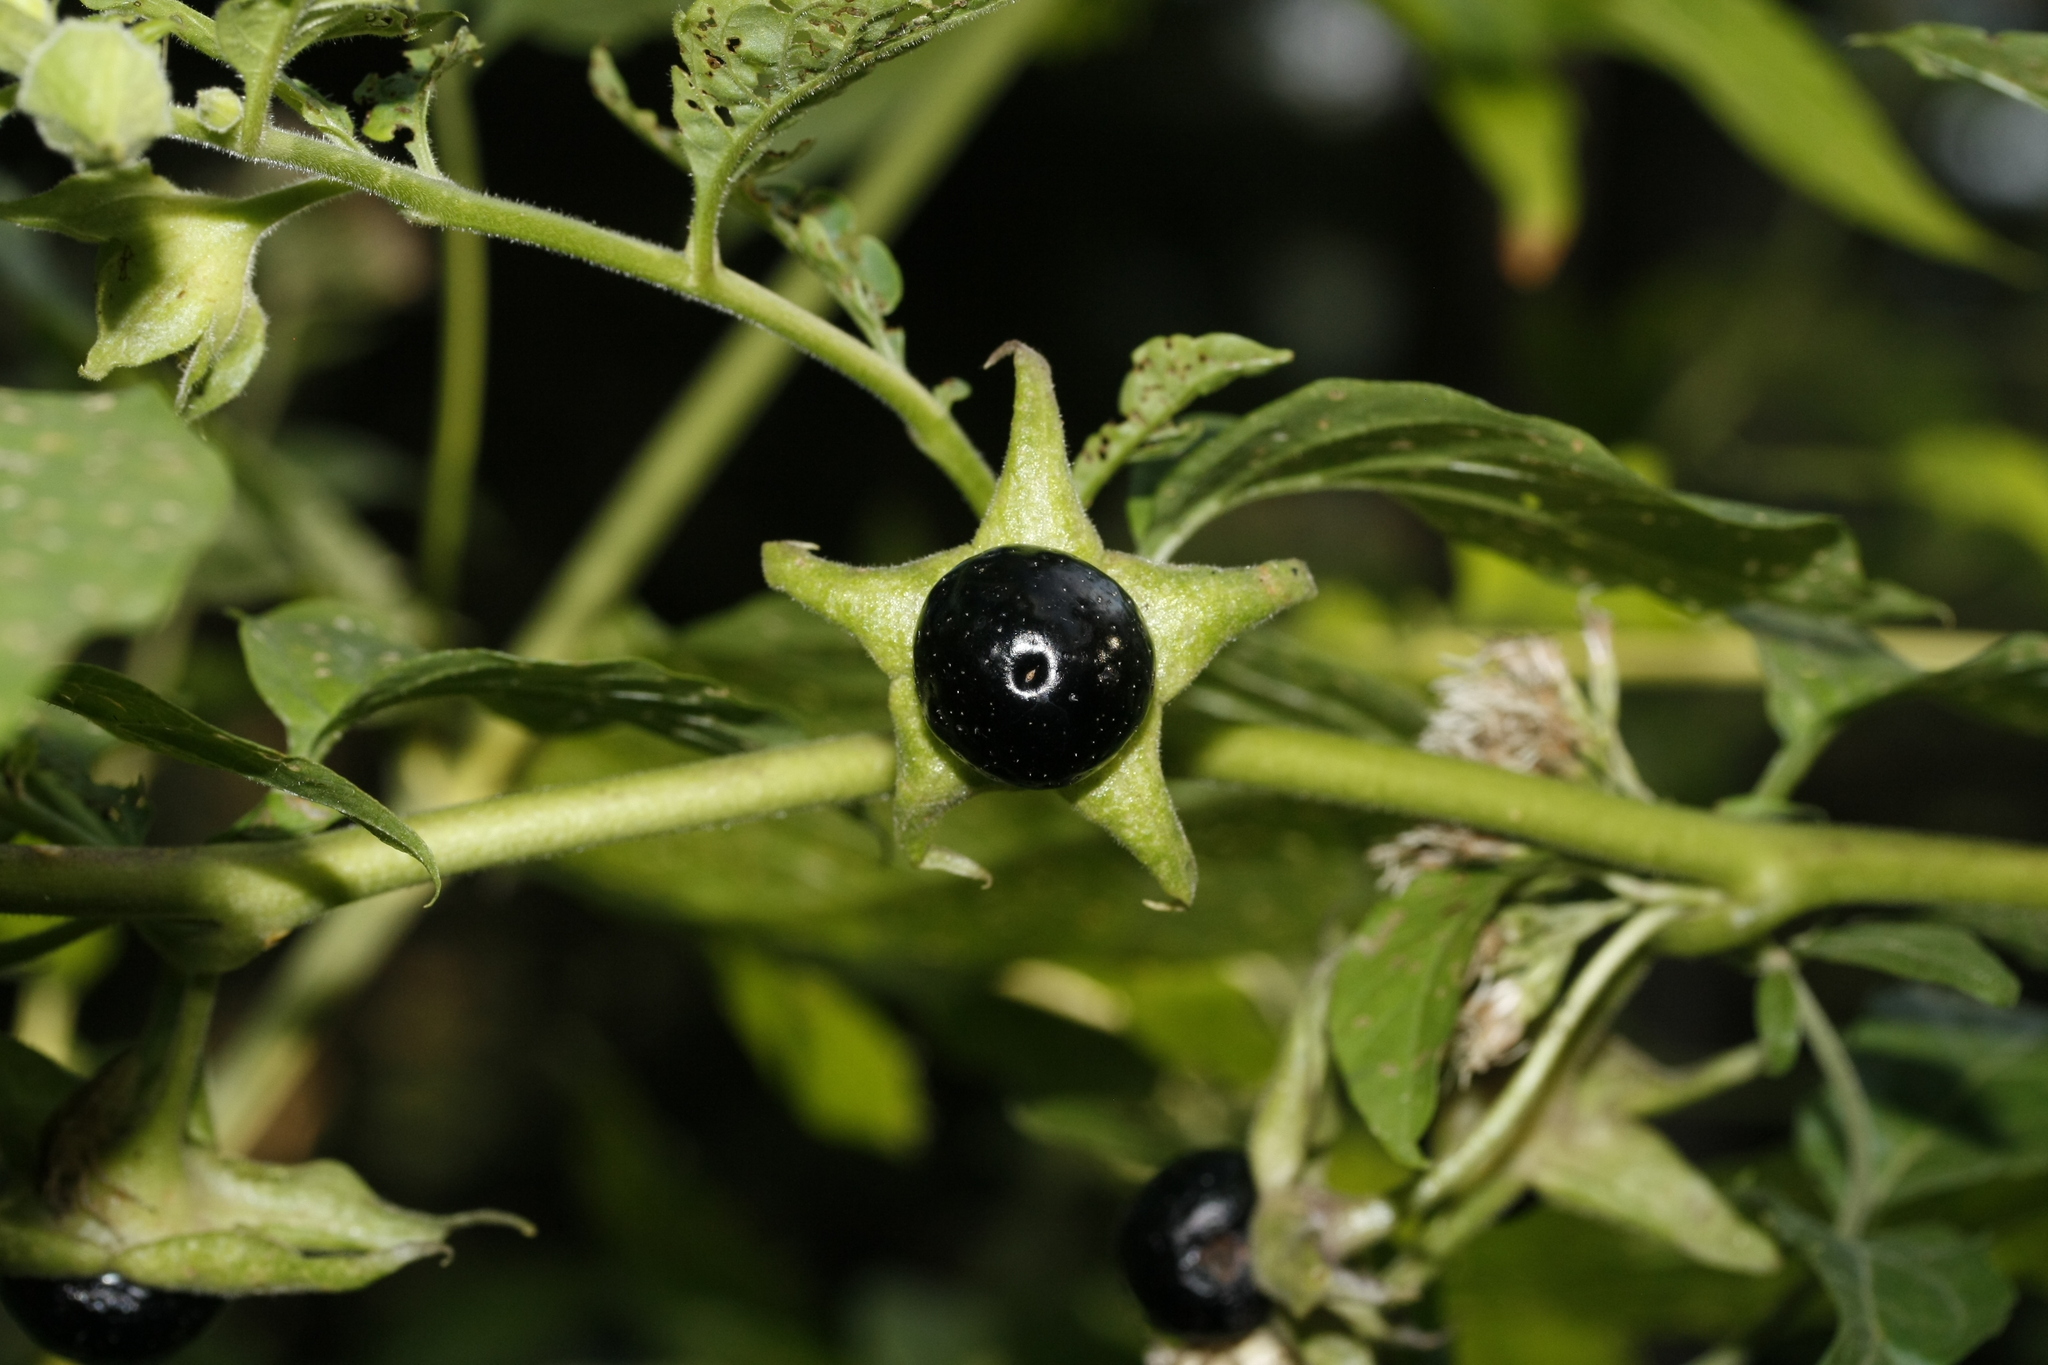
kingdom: Plantae
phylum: Tracheophyta
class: Magnoliopsida
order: Solanales
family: Solanaceae
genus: Atropa
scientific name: Atropa belladonna
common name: Deadly nightshade
